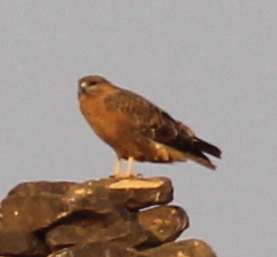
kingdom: Animalia
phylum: Chordata
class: Aves
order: Accipitriformes
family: Accipitridae
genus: Buteo
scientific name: Buteo rufinus
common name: Long-legged buzzard
